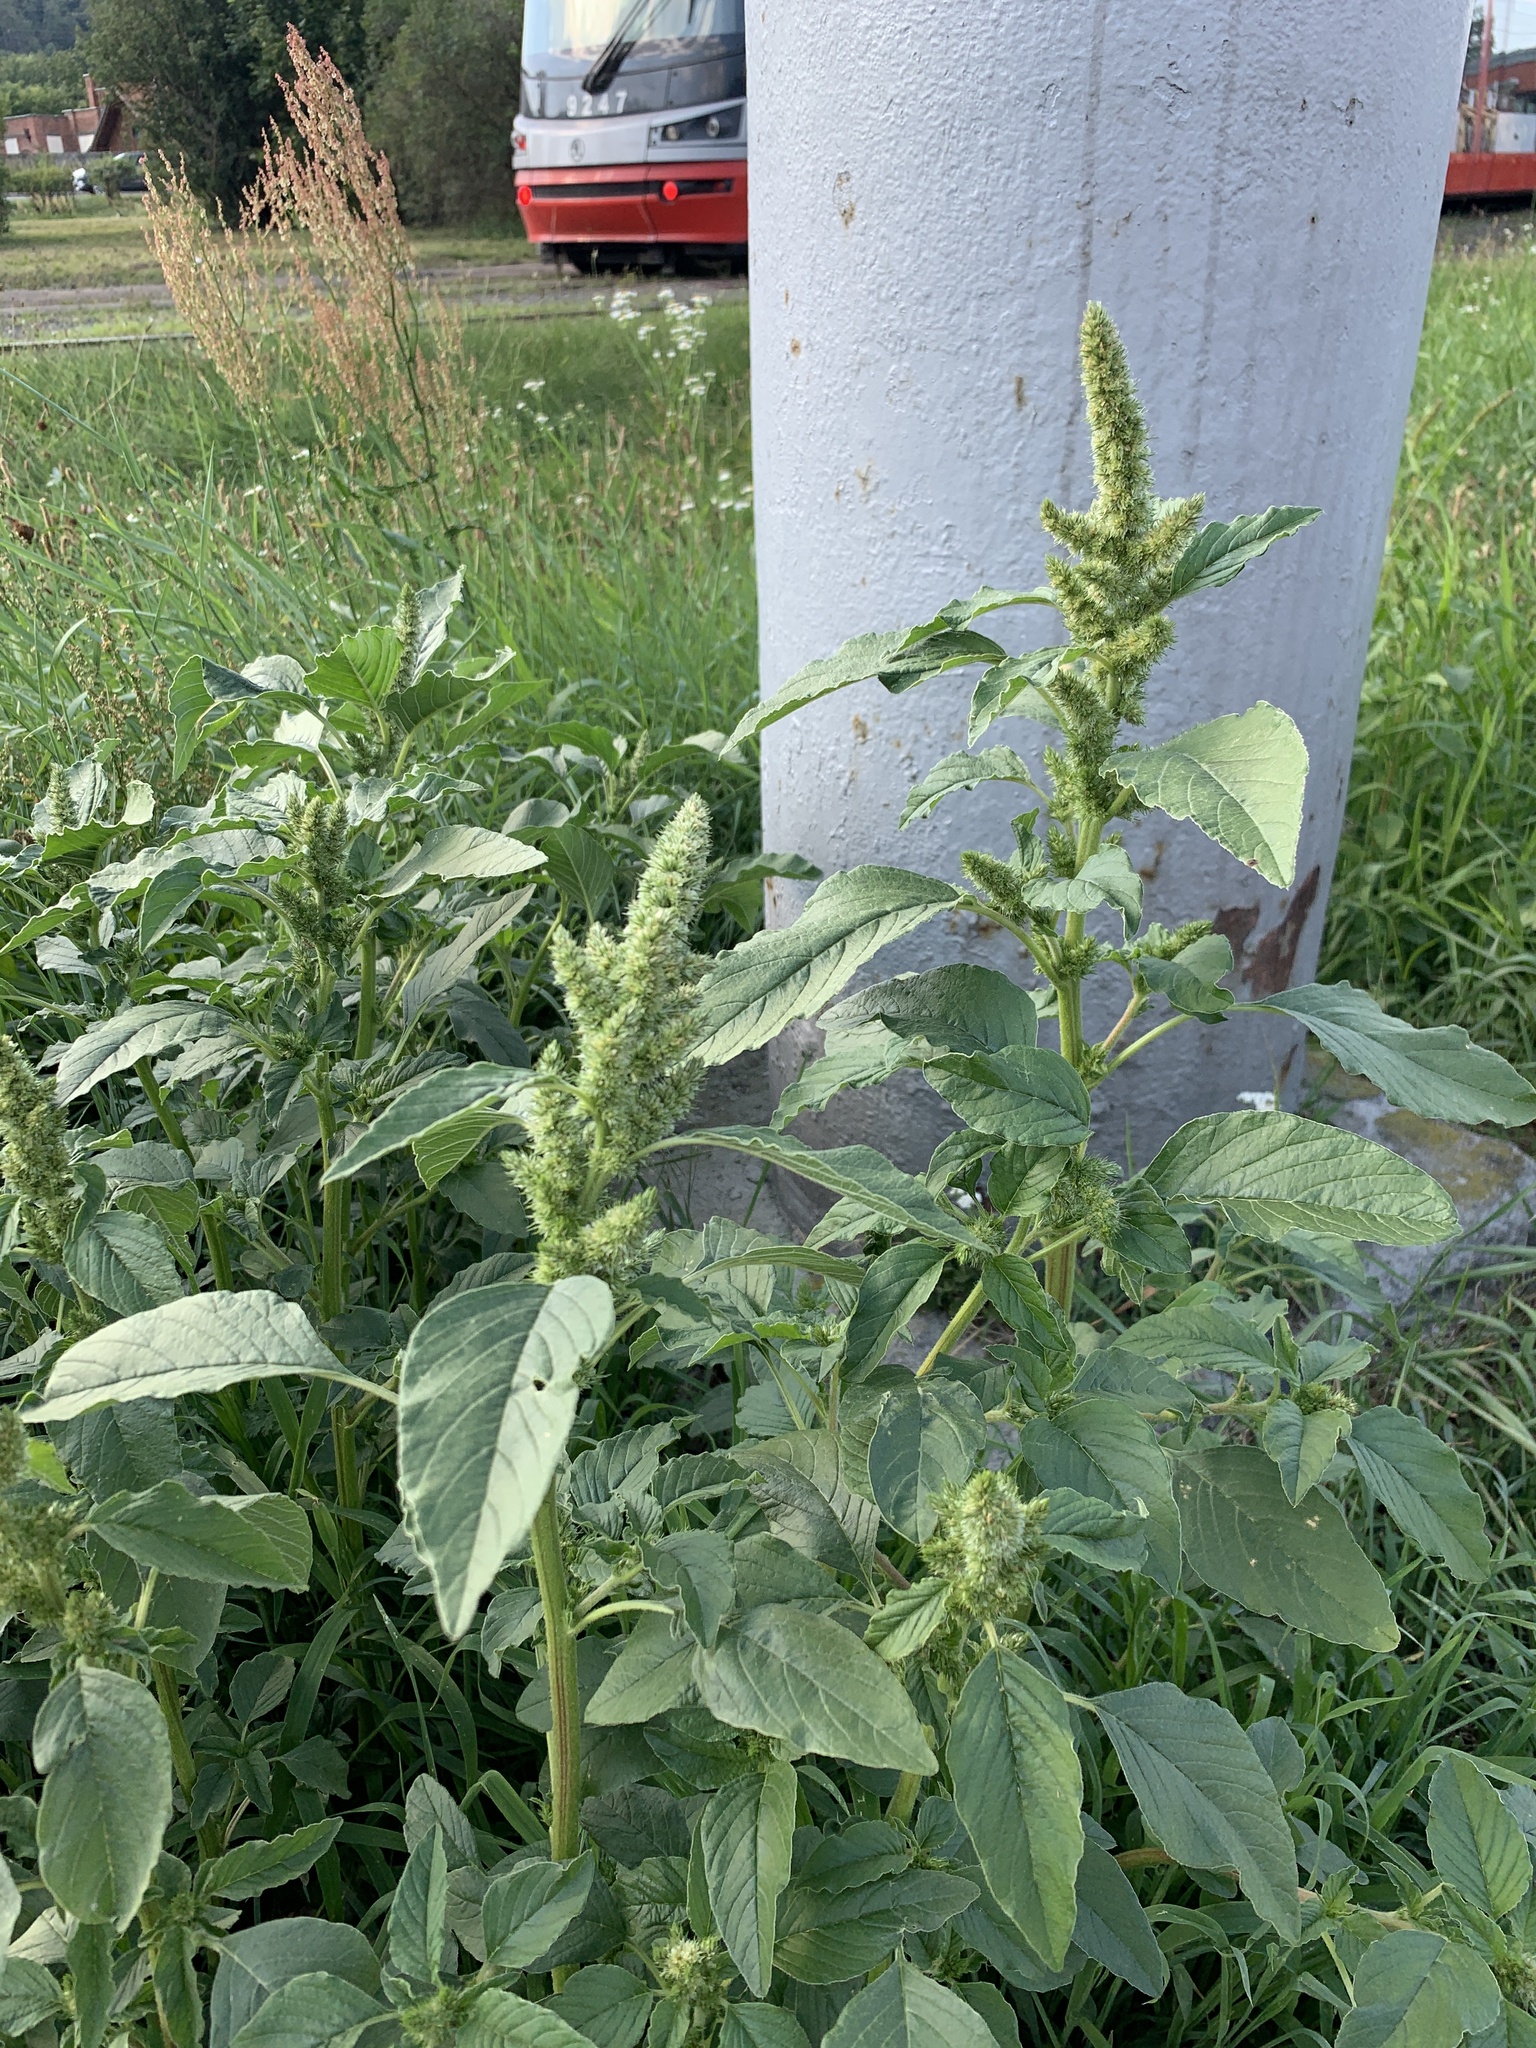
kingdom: Plantae
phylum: Tracheophyta
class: Magnoliopsida
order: Caryophyllales
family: Amaranthaceae
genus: Amaranthus
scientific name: Amaranthus retroflexus
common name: Redroot amaranth
